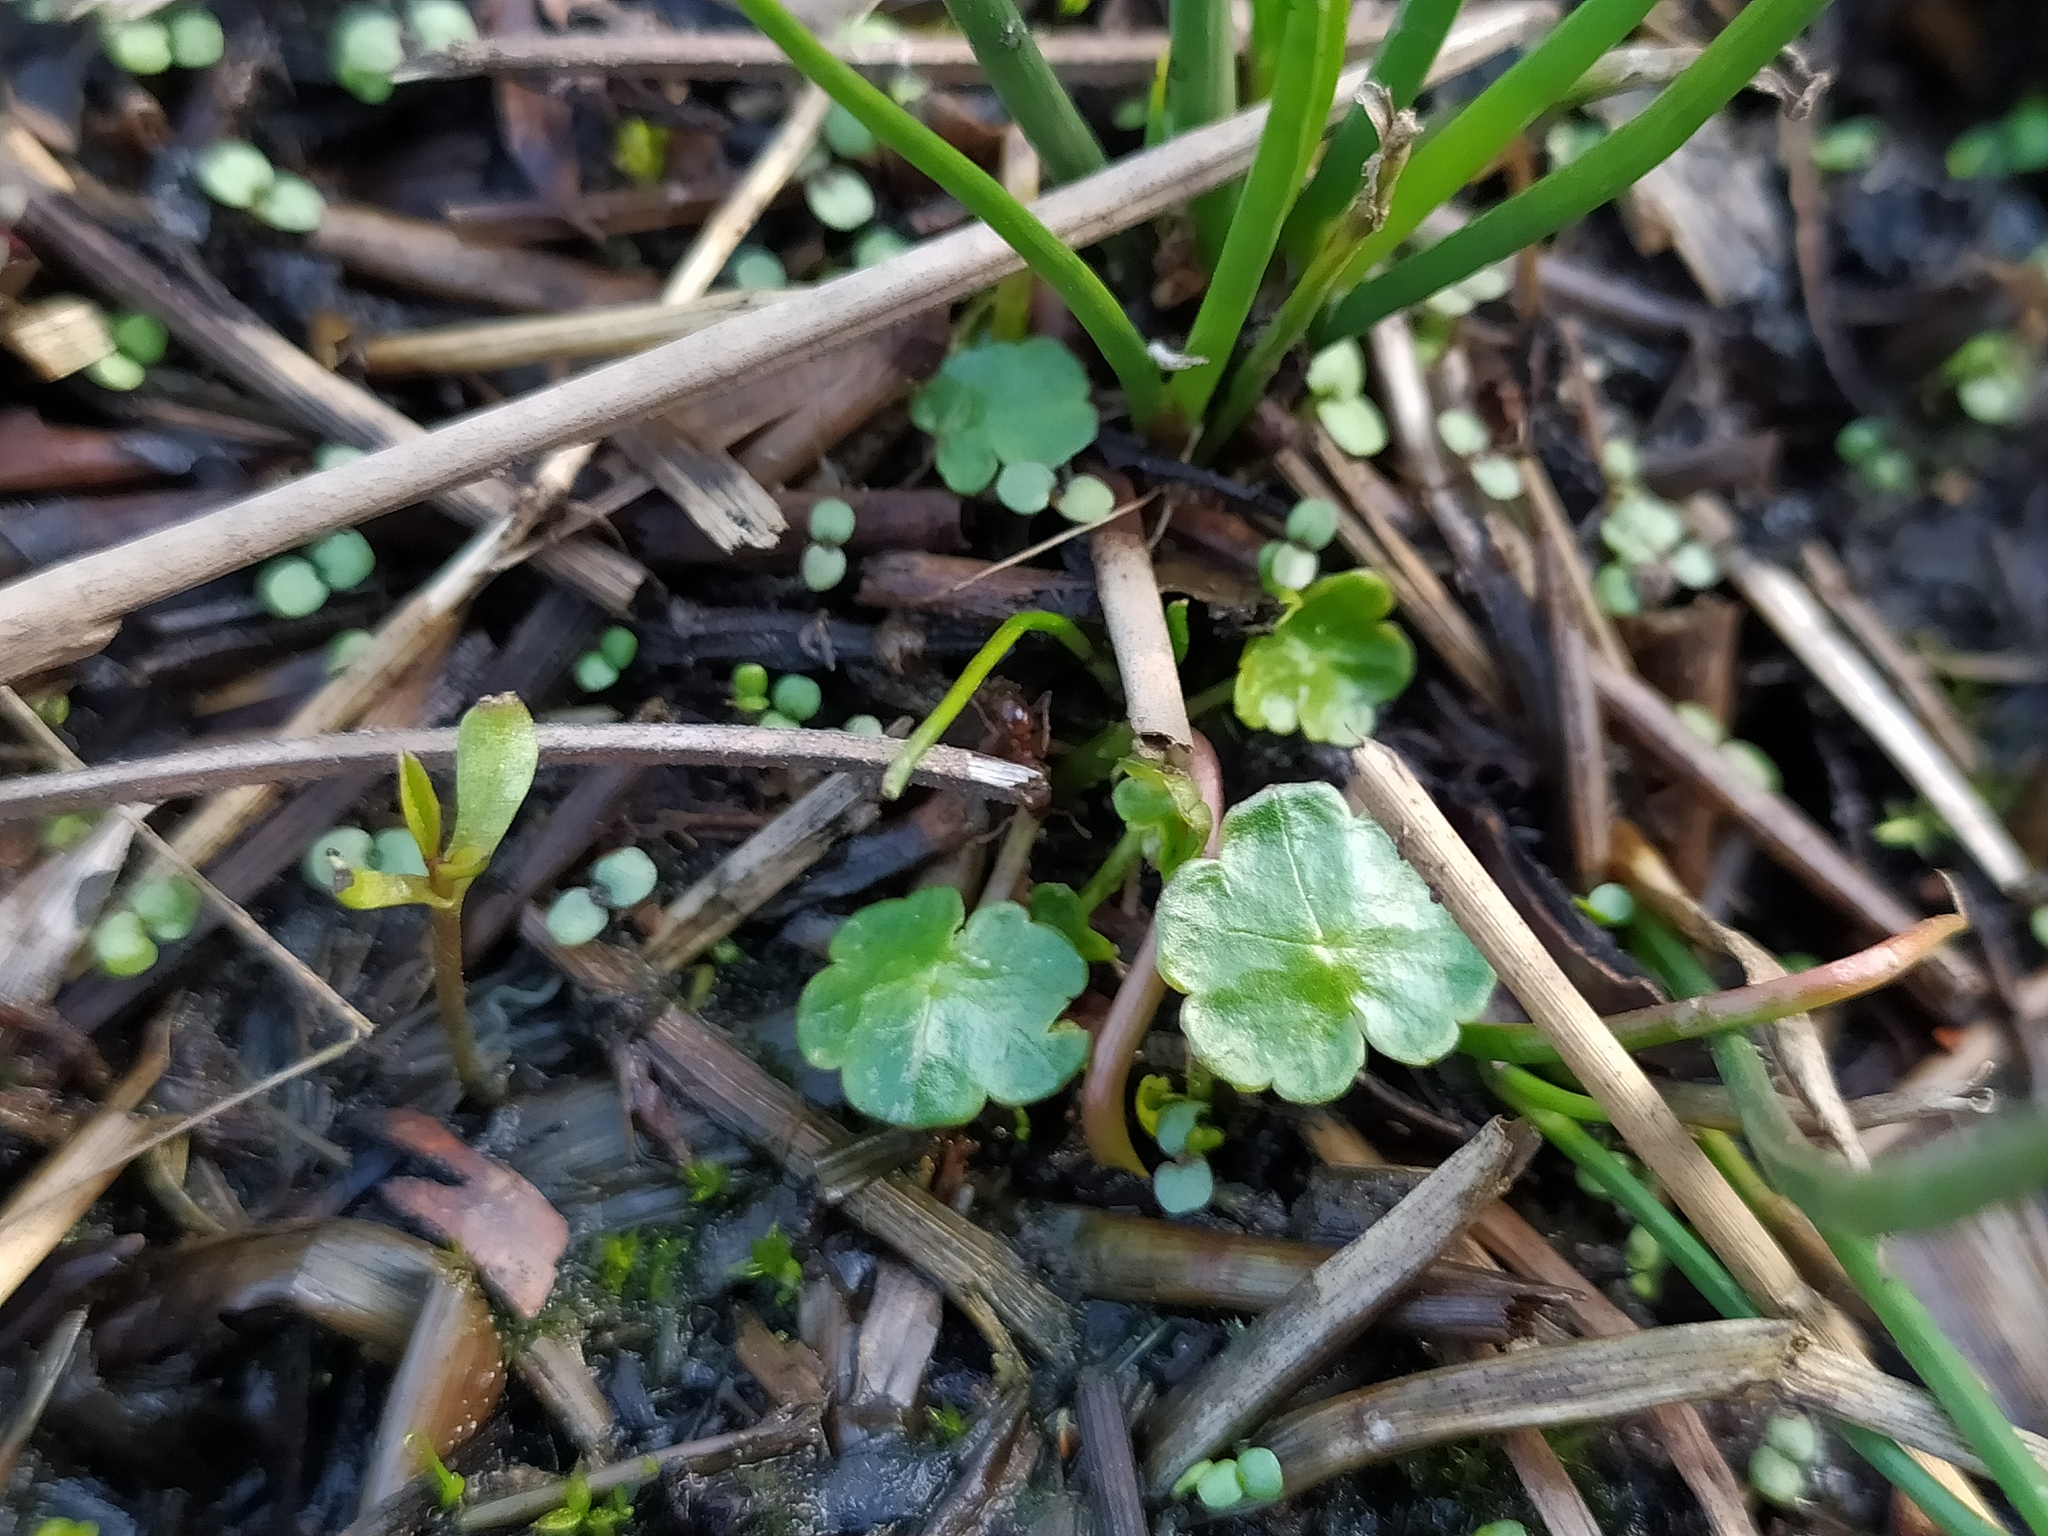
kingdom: Plantae
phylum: Tracheophyta
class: Magnoliopsida
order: Apiales
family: Araliaceae
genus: Hydrocotyle
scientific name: Hydrocotyle vulgaris
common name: Marsh pennywort
